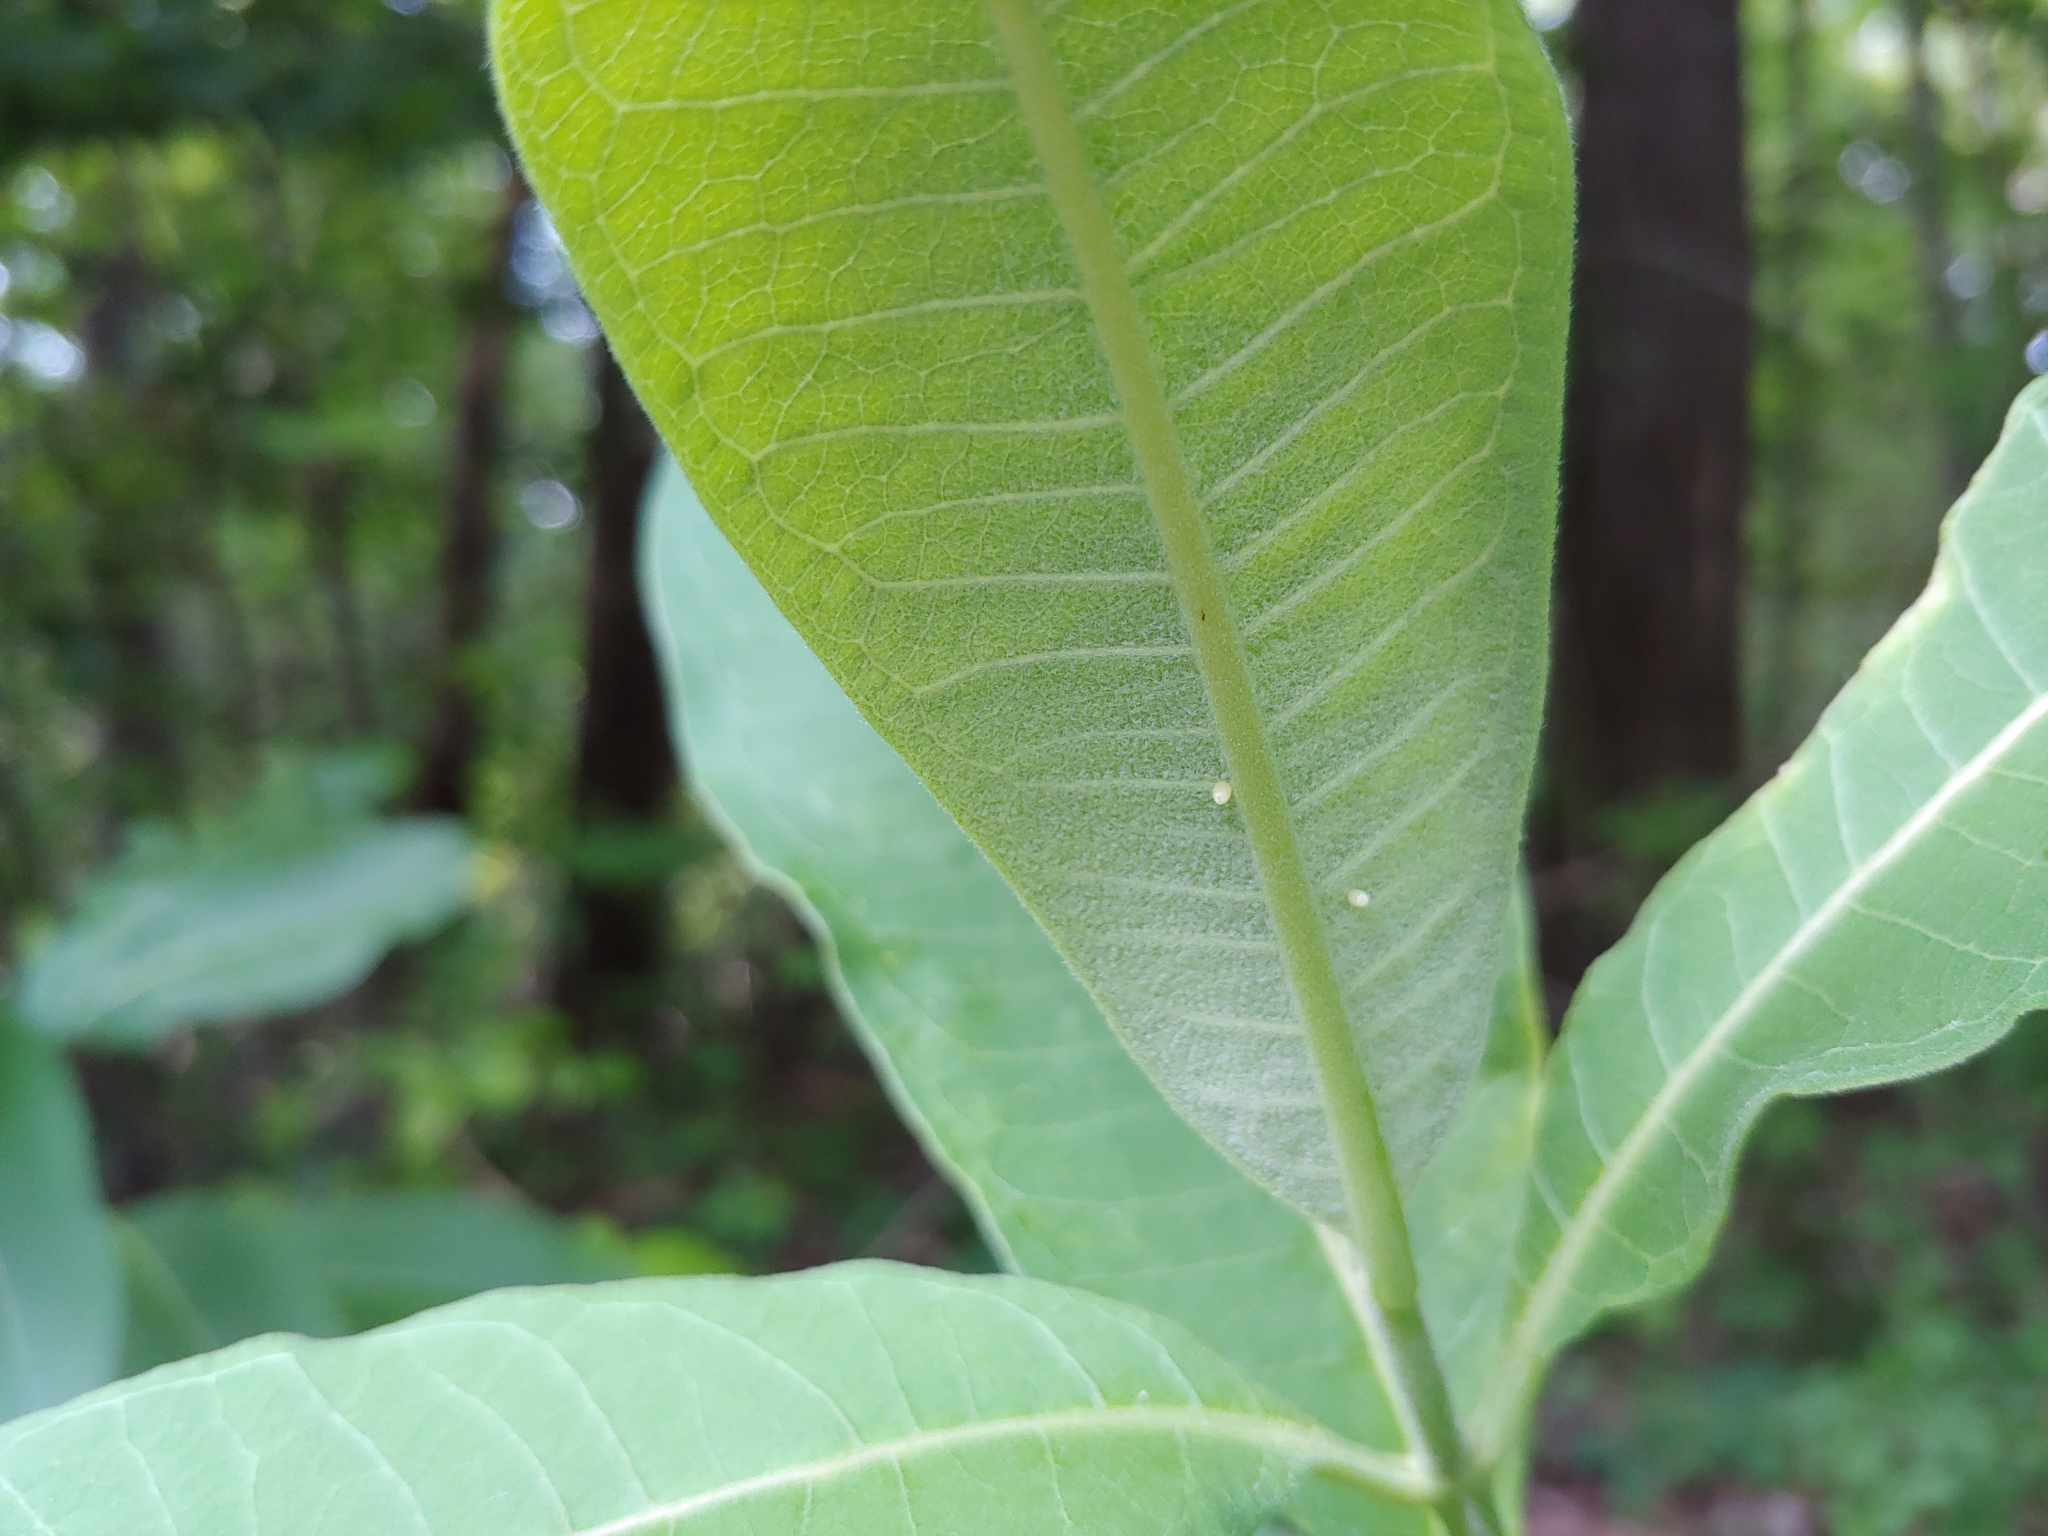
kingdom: Animalia
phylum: Arthropoda
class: Insecta
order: Lepidoptera
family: Nymphalidae
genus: Danaus
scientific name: Danaus plexippus
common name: Monarch
